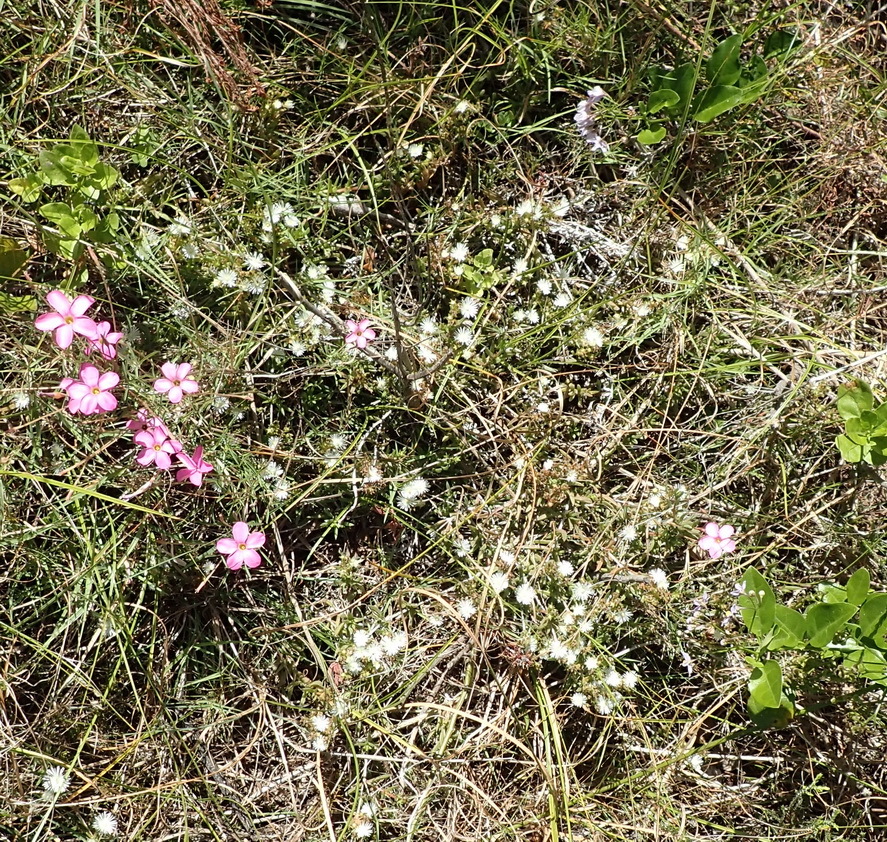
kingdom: Plantae
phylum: Tracheophyta
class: Magnoliopsida
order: Caryophyllales
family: Aizoaceae
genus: Delosperma
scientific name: Delosperma inconspicuum
